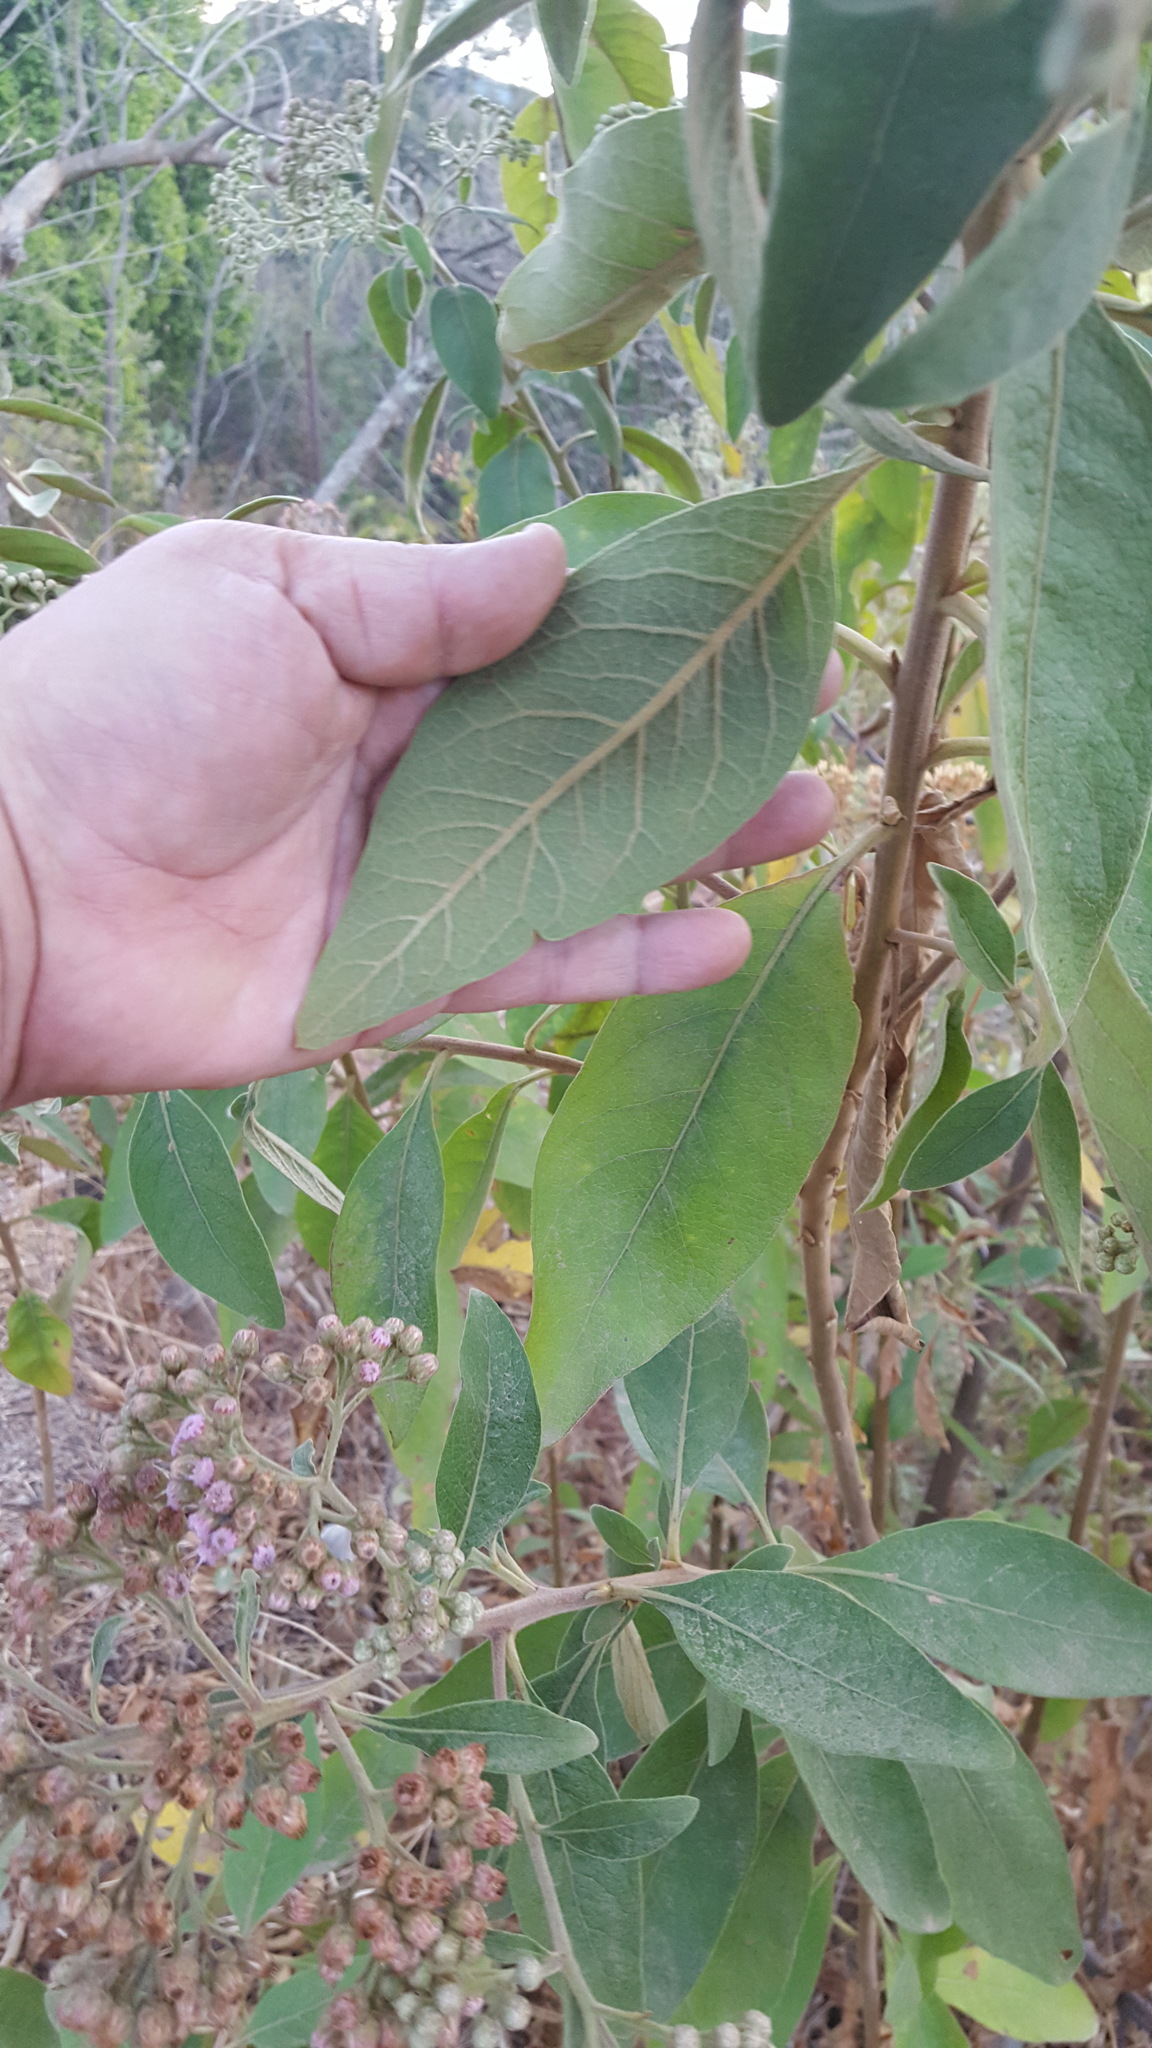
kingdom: Plantae
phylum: Tracheophyta
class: Magnoliopsida
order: Asterales
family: Asteraceae
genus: Pluchea
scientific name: Pluchea carolinensis
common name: Marsh fleabane
